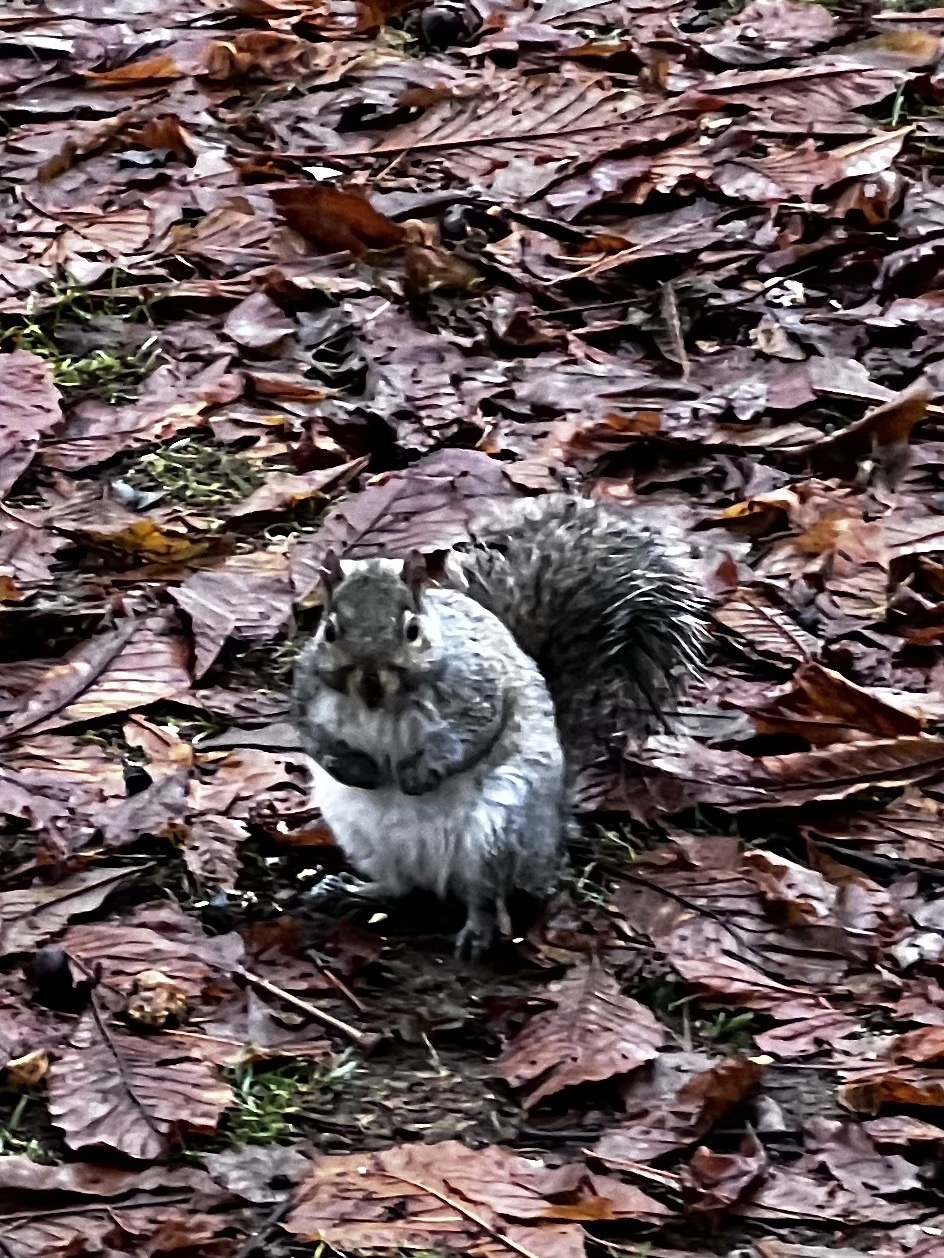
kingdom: Animalia
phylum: Chordata
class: Mammalia
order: Rodentia
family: Sciuridae
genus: Sciurus
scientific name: Sciurus carolinensis
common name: Eastern gray squirrel
